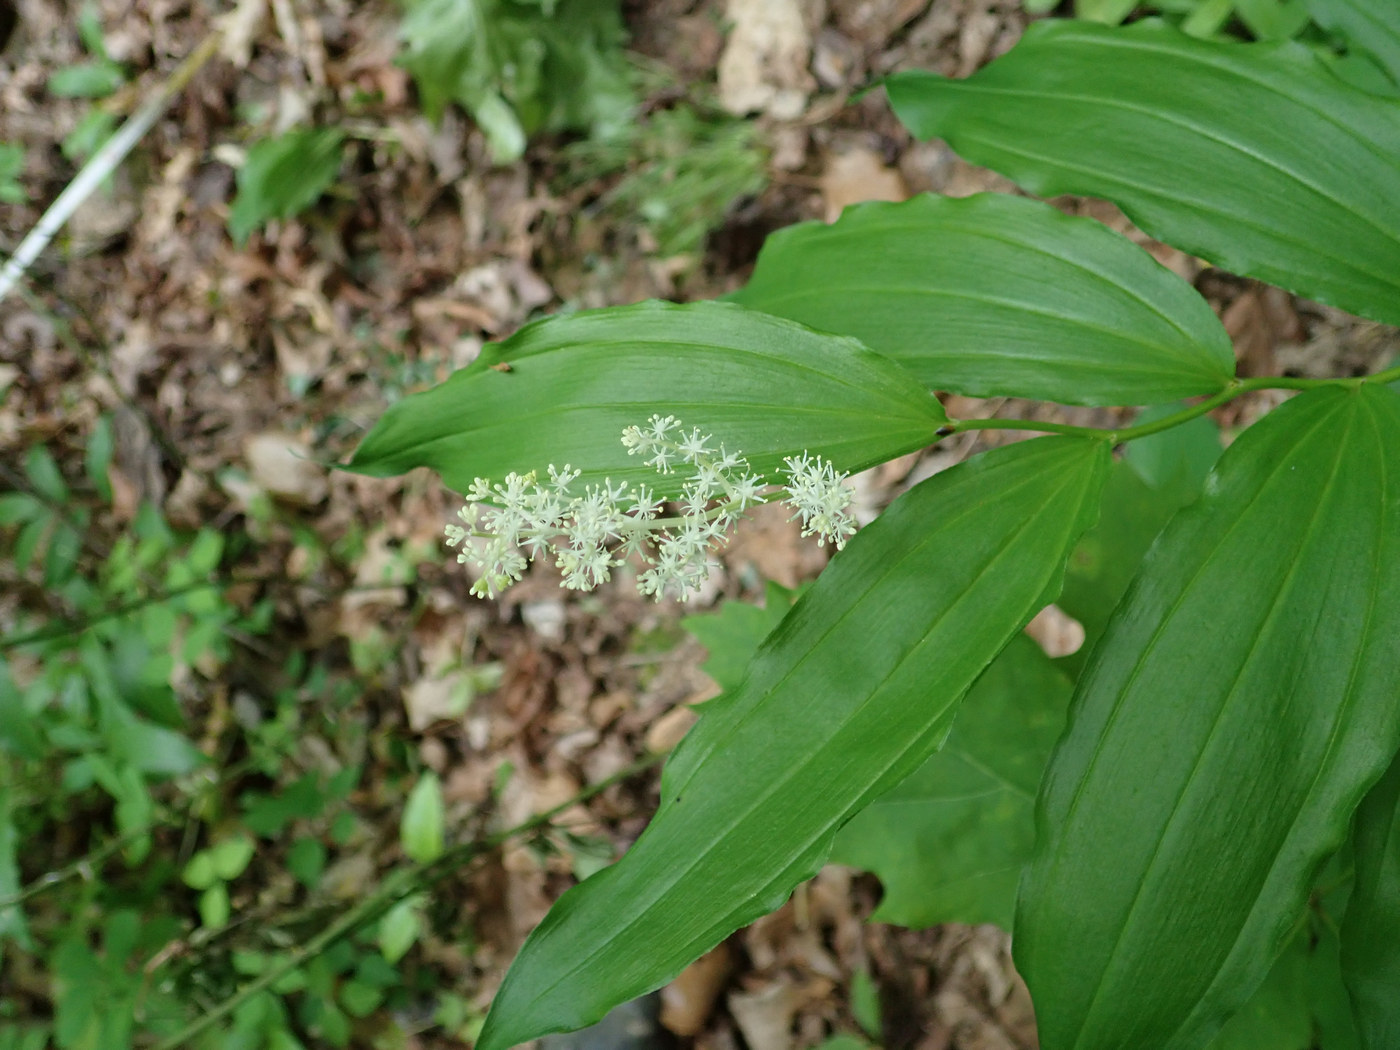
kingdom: Animalia
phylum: Arthropoda
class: Insecta
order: Diptera
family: Scathophagidae
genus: Leptopa
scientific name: Leptopa
